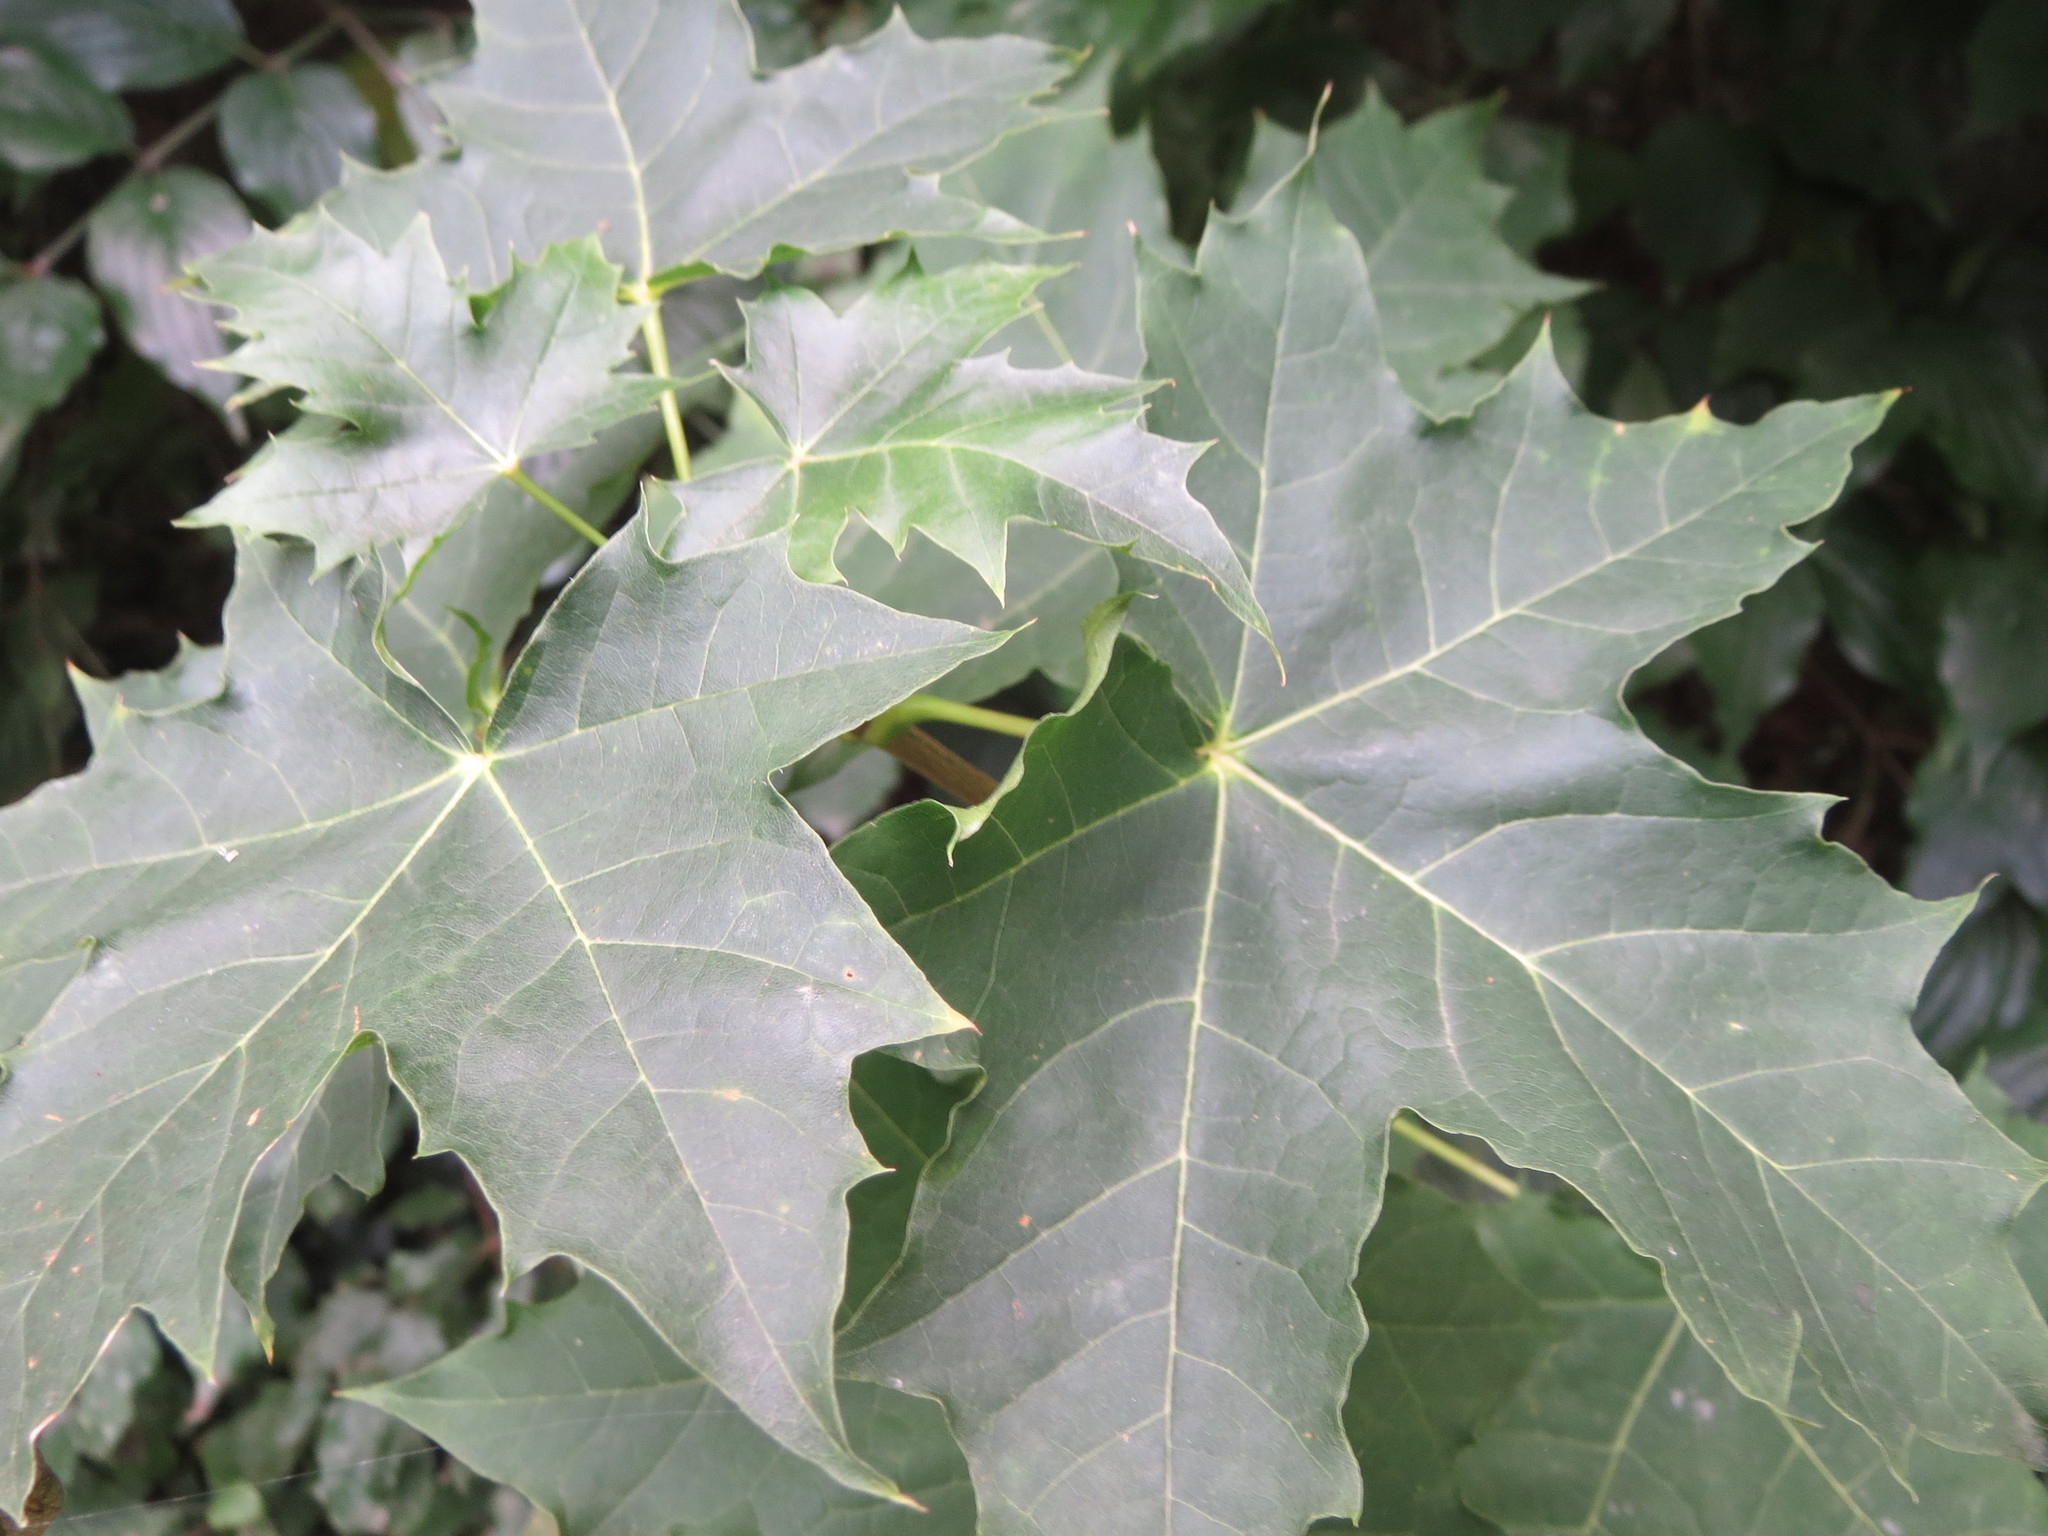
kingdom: Plantae
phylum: Tracheophyta
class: Magnoliopsida
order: Sapindales
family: Sapindaceae
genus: Acer
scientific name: Acer platanoides
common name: Norway maple
